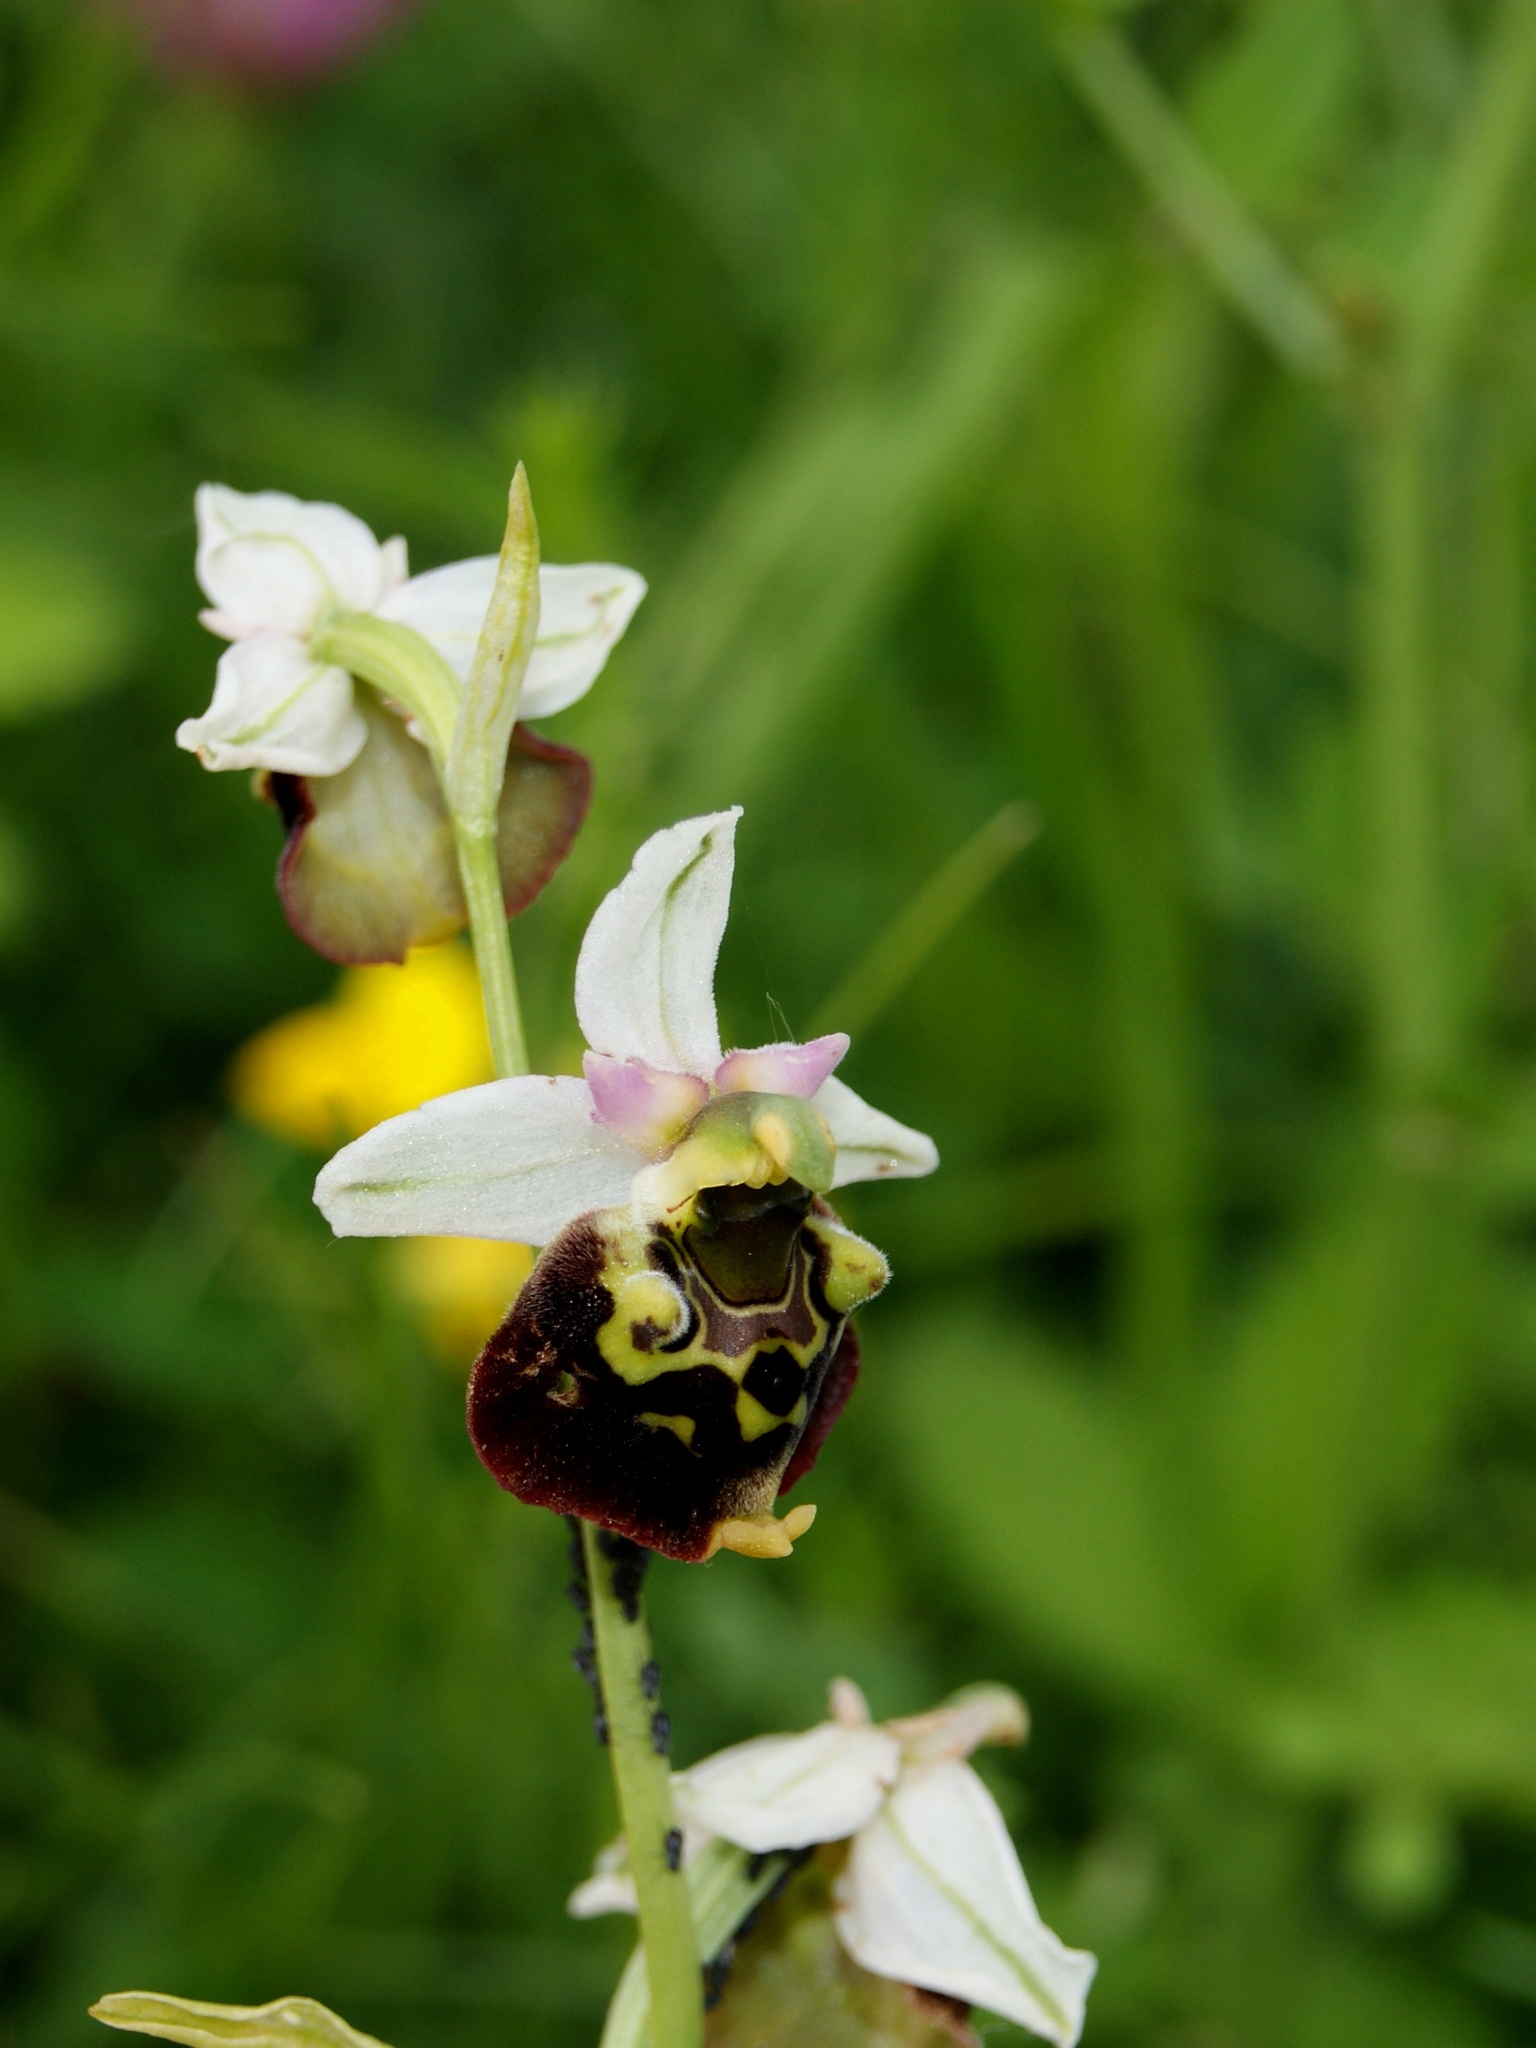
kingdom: Plantae
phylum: Tracheophyta
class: Liliopsida
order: Asparagales
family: Orchidaceae
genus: Ophrys
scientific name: Ophrys holosericea
